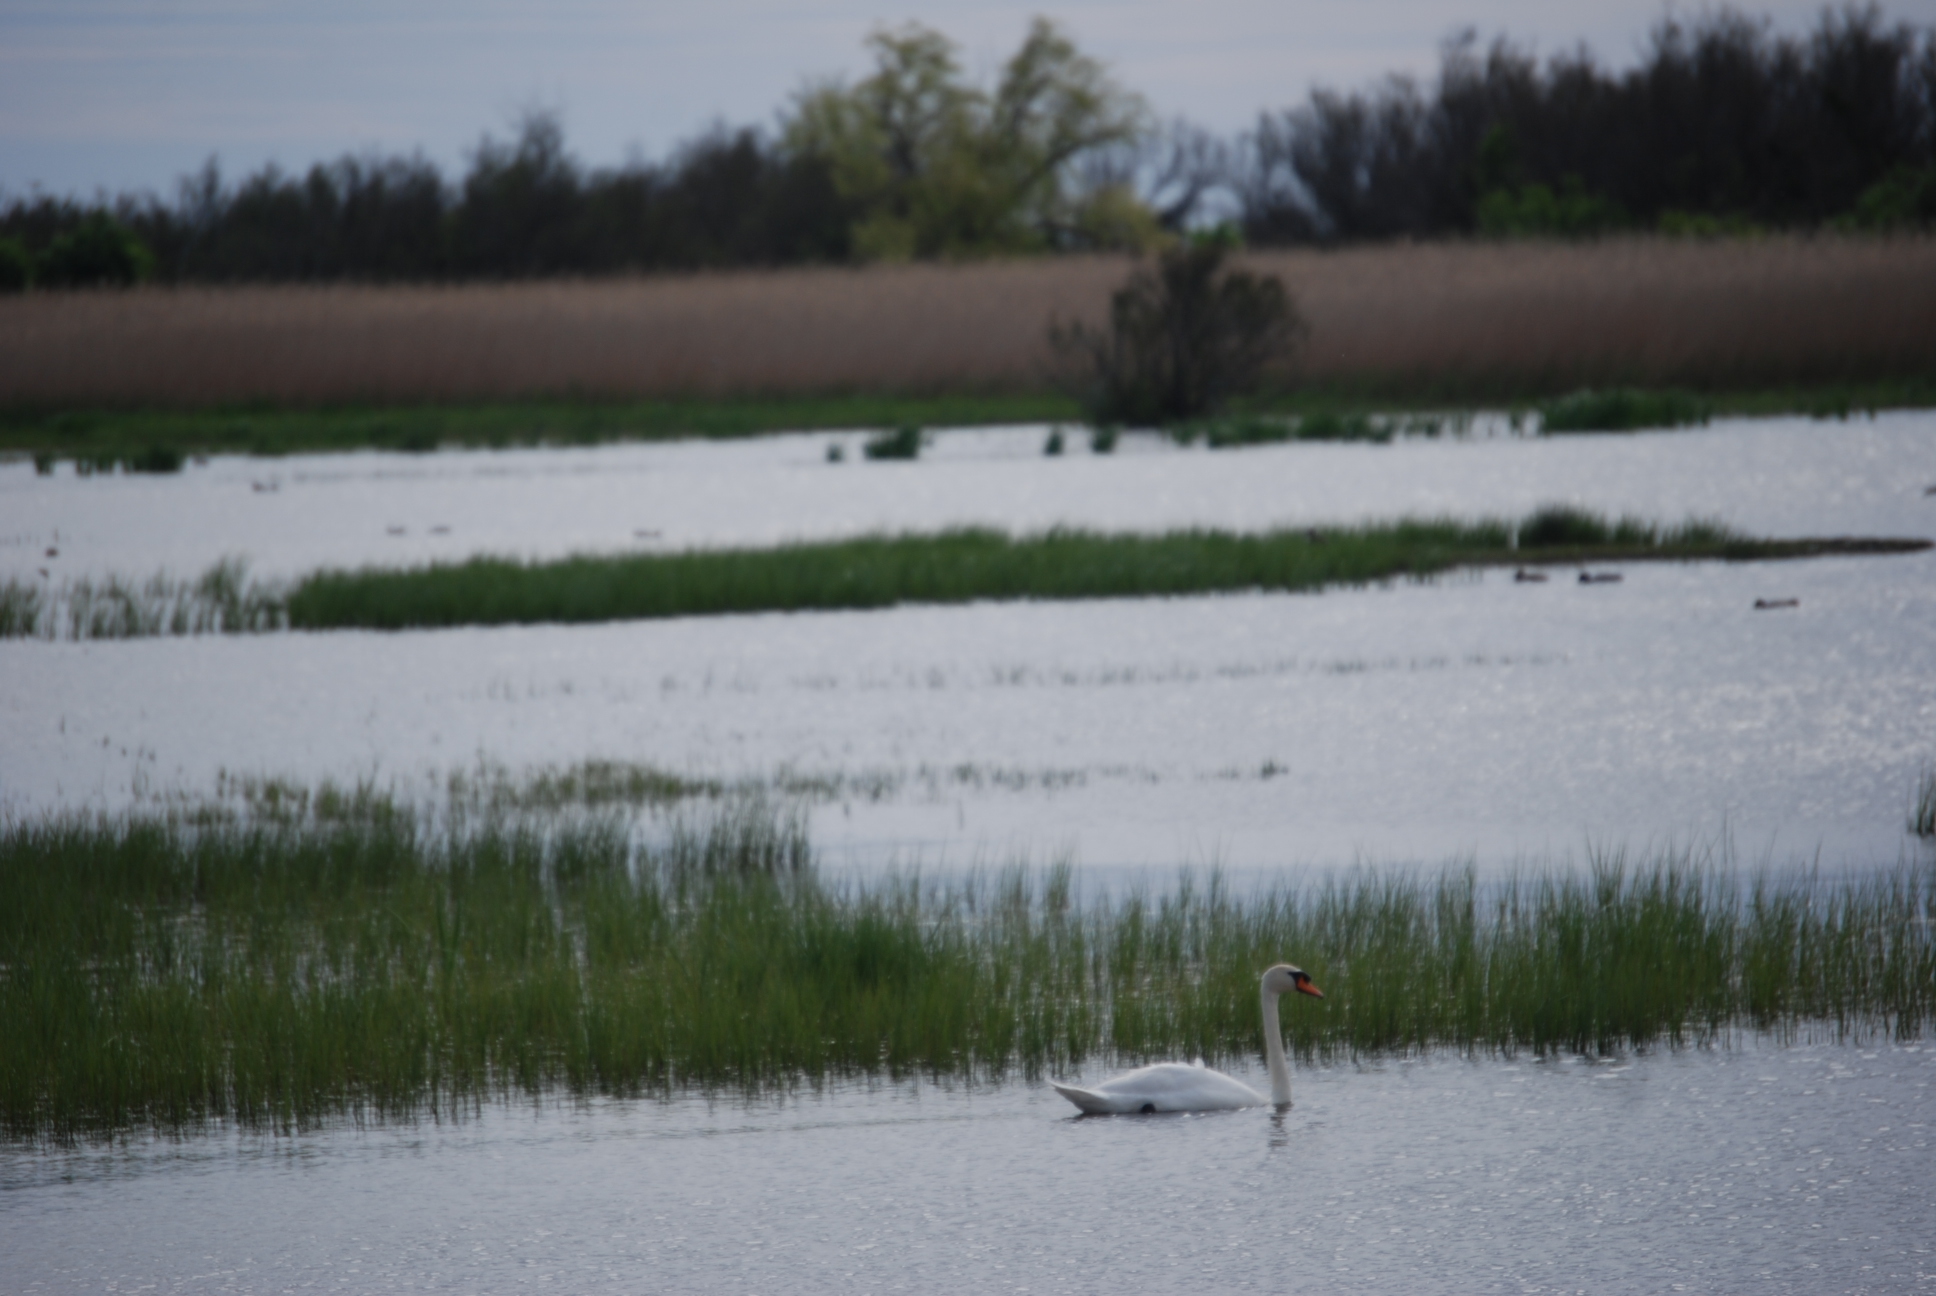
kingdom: Animalia
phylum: Chordata
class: Aves
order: Anseriformes
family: Anatidae
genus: Cygnus
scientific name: Cygnus olor
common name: Mute swan
